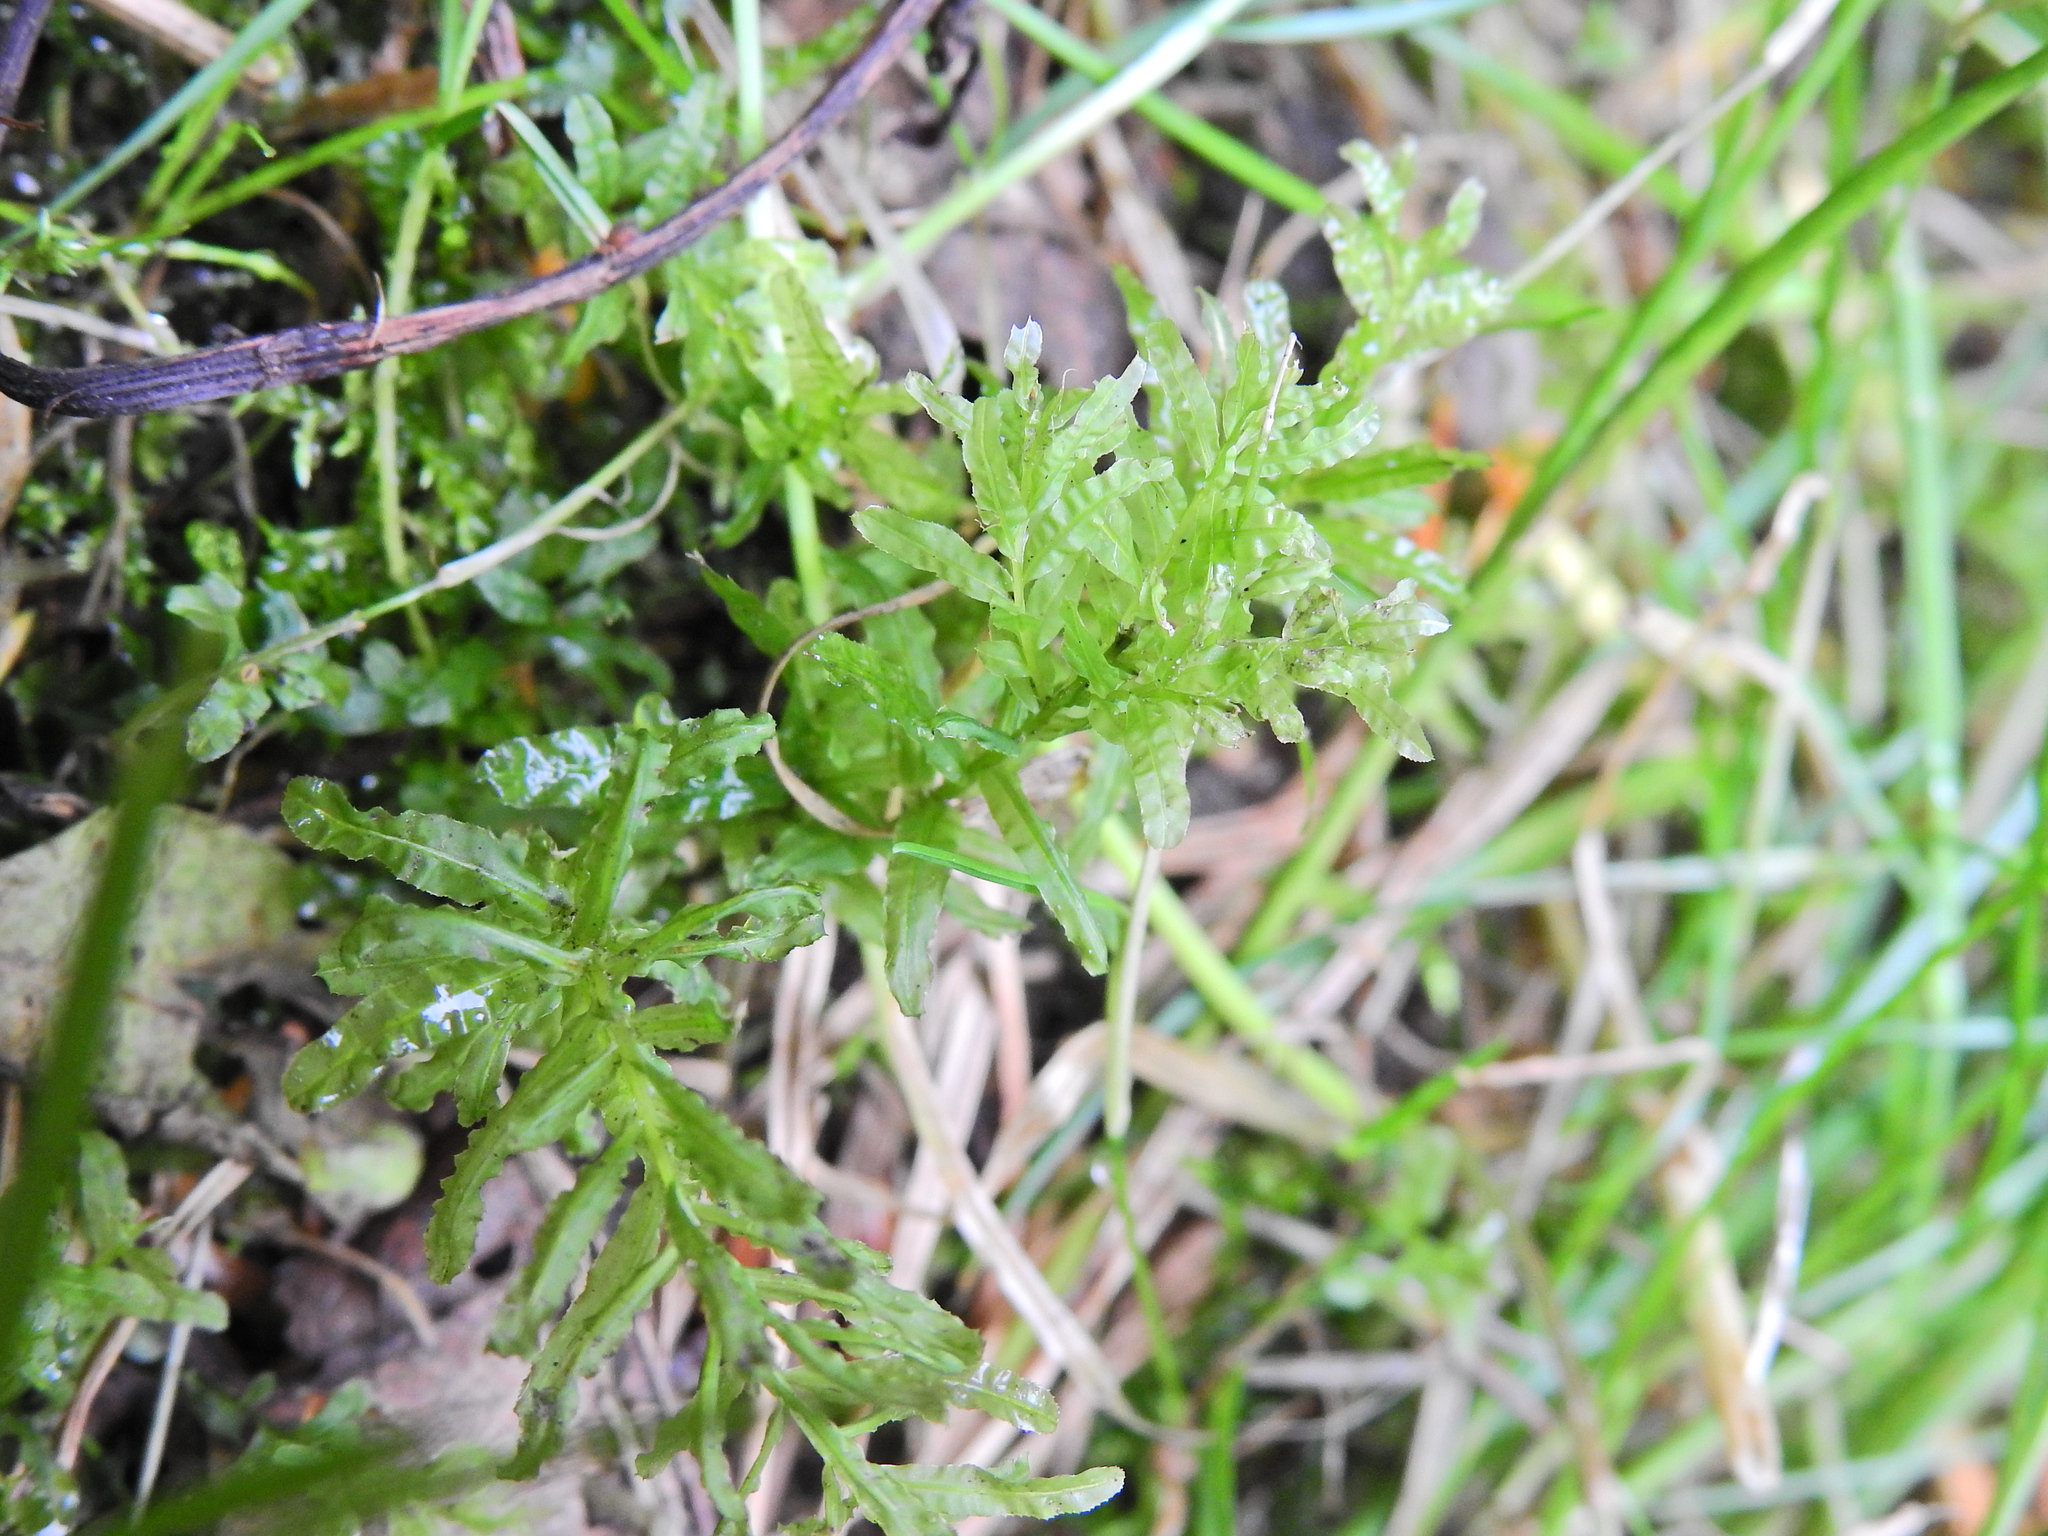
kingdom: Plantae
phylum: Bryophyta
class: Bryopsida
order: Bryales
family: Mniaceae
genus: Plagiomnium
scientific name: Plagiomnium undulatum
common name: Hart's-tongue thyme-moss
